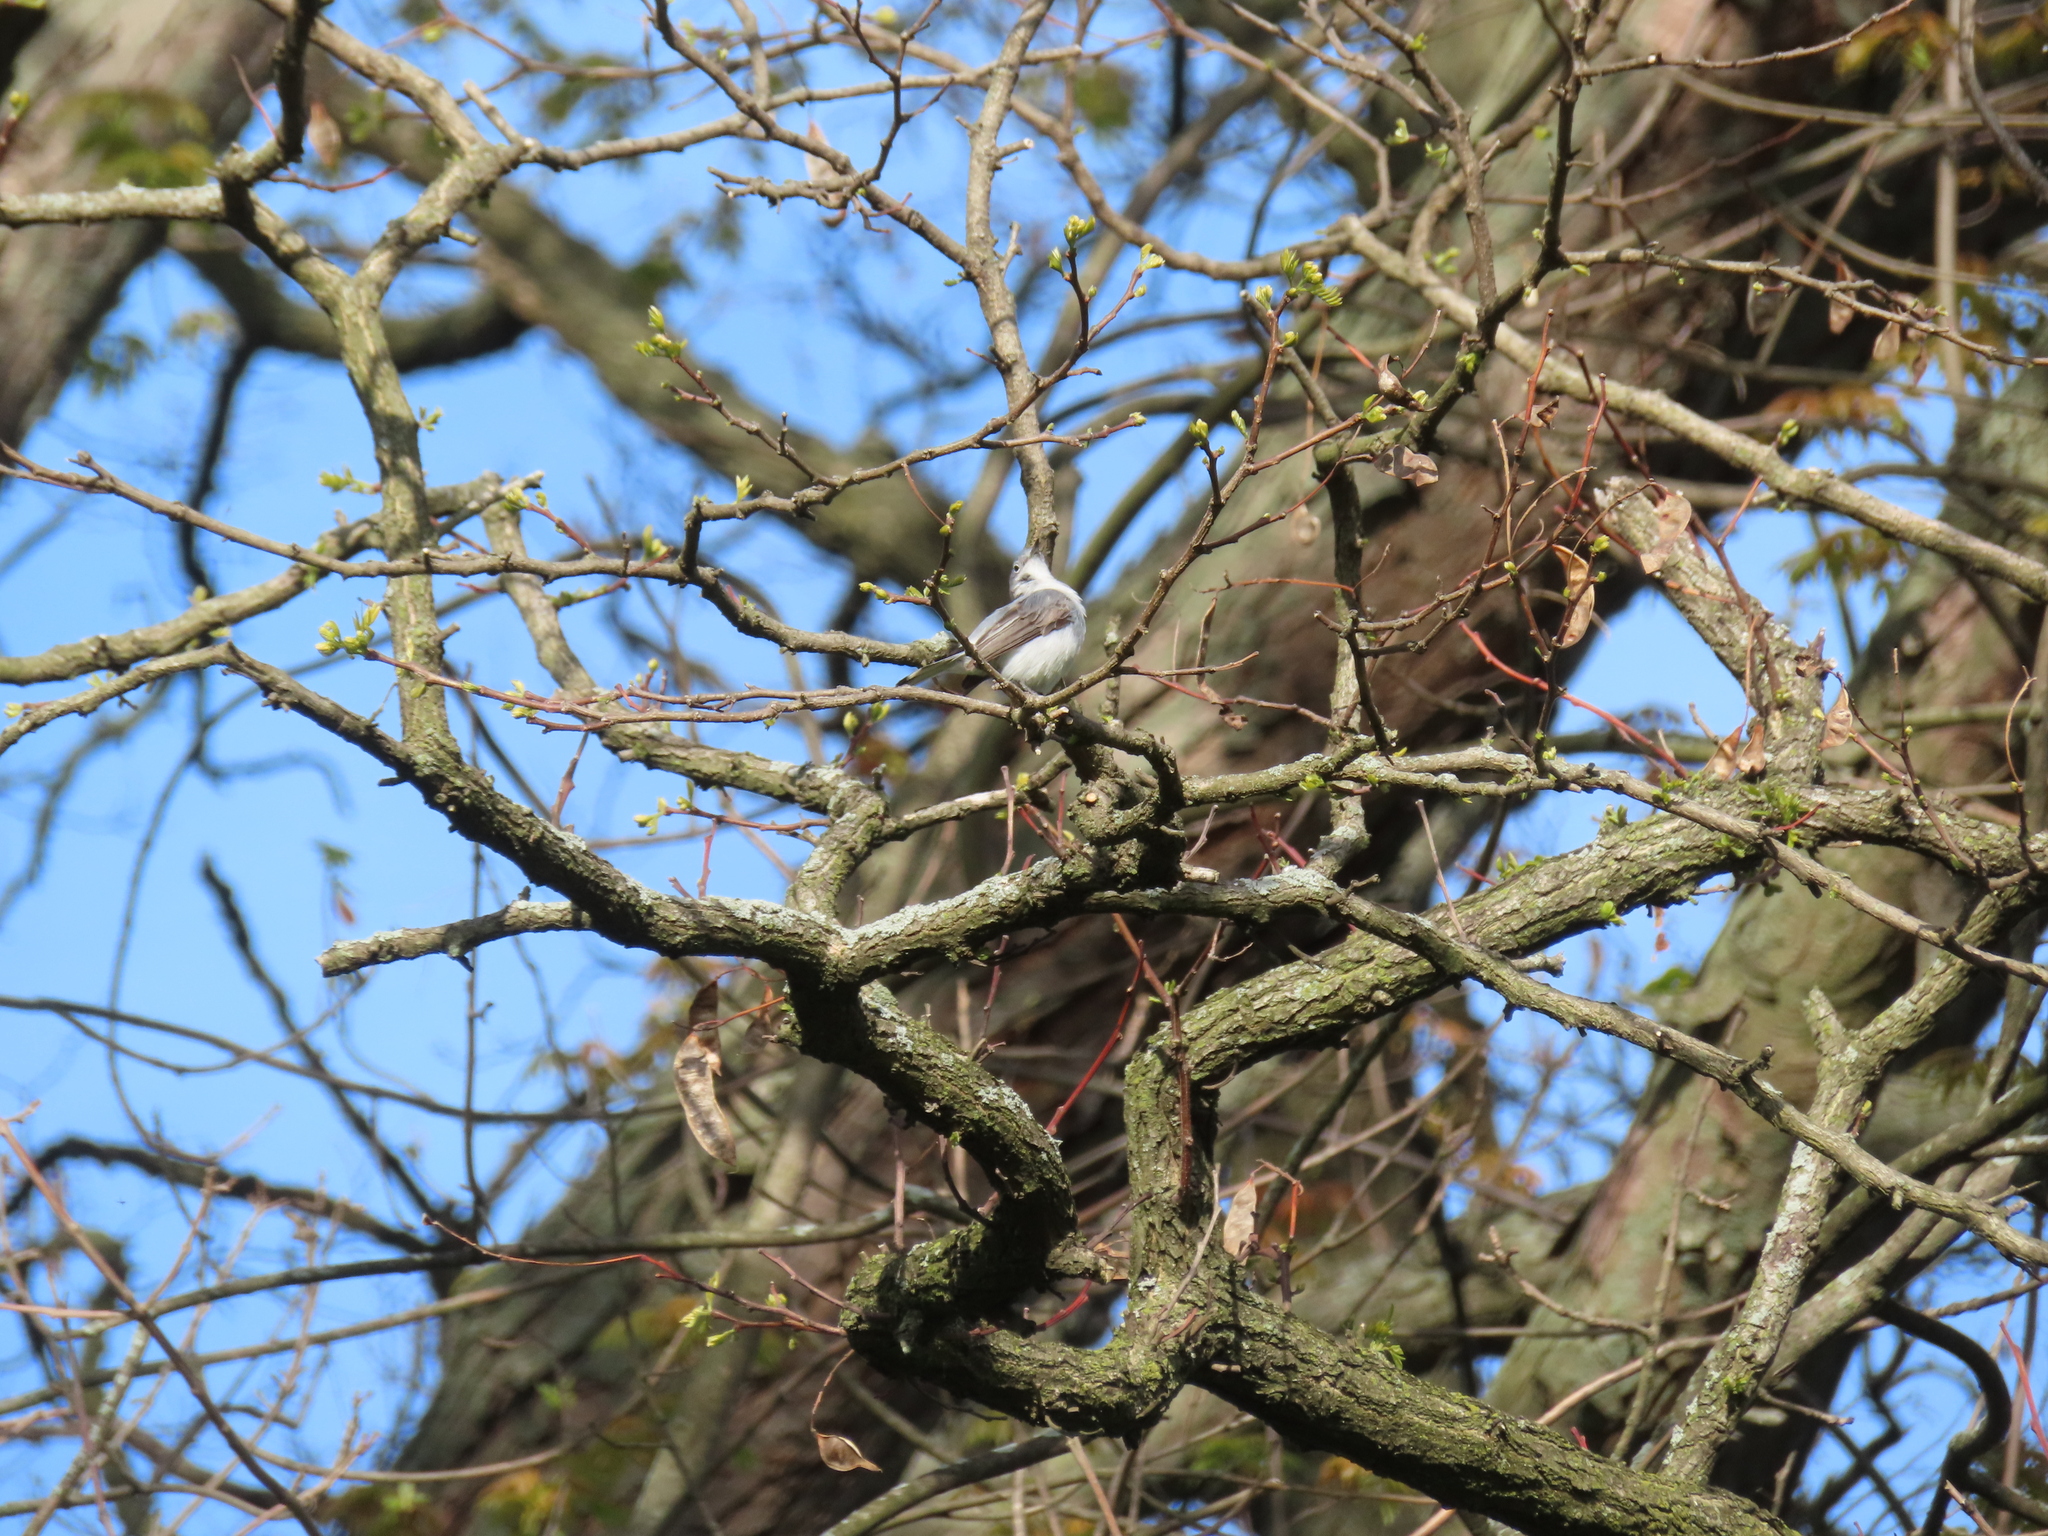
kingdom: Animalia
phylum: Chordata
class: Aves
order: Passeriformes
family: Polioptilidae
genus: Polioptila
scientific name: Polioptila caerulea
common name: Blue-gray gnatcatcher
